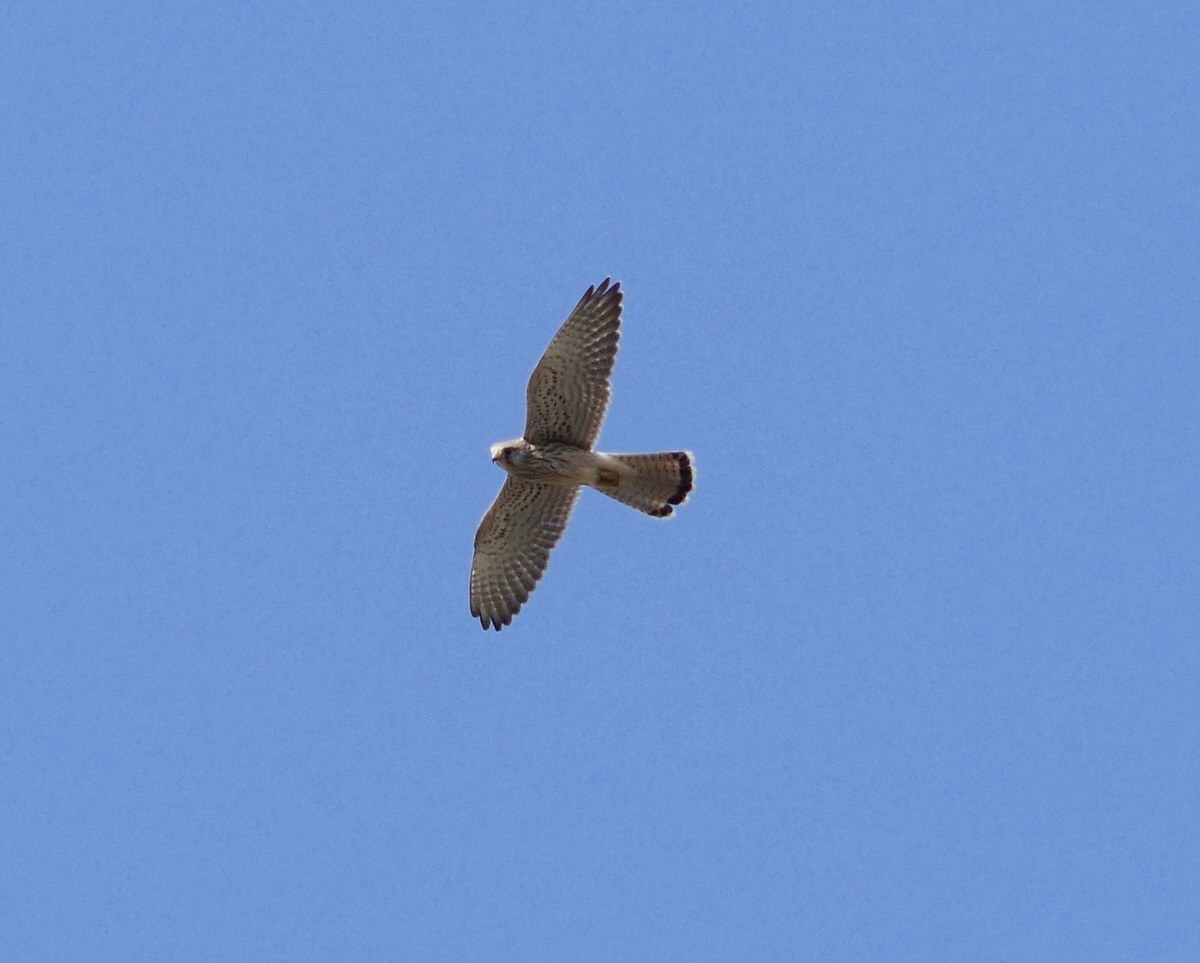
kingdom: Animalia
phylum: Chordata
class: Aves
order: Falconiformes
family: Falconidae
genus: Falco
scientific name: Falco tinnunculus
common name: Common kestrel
